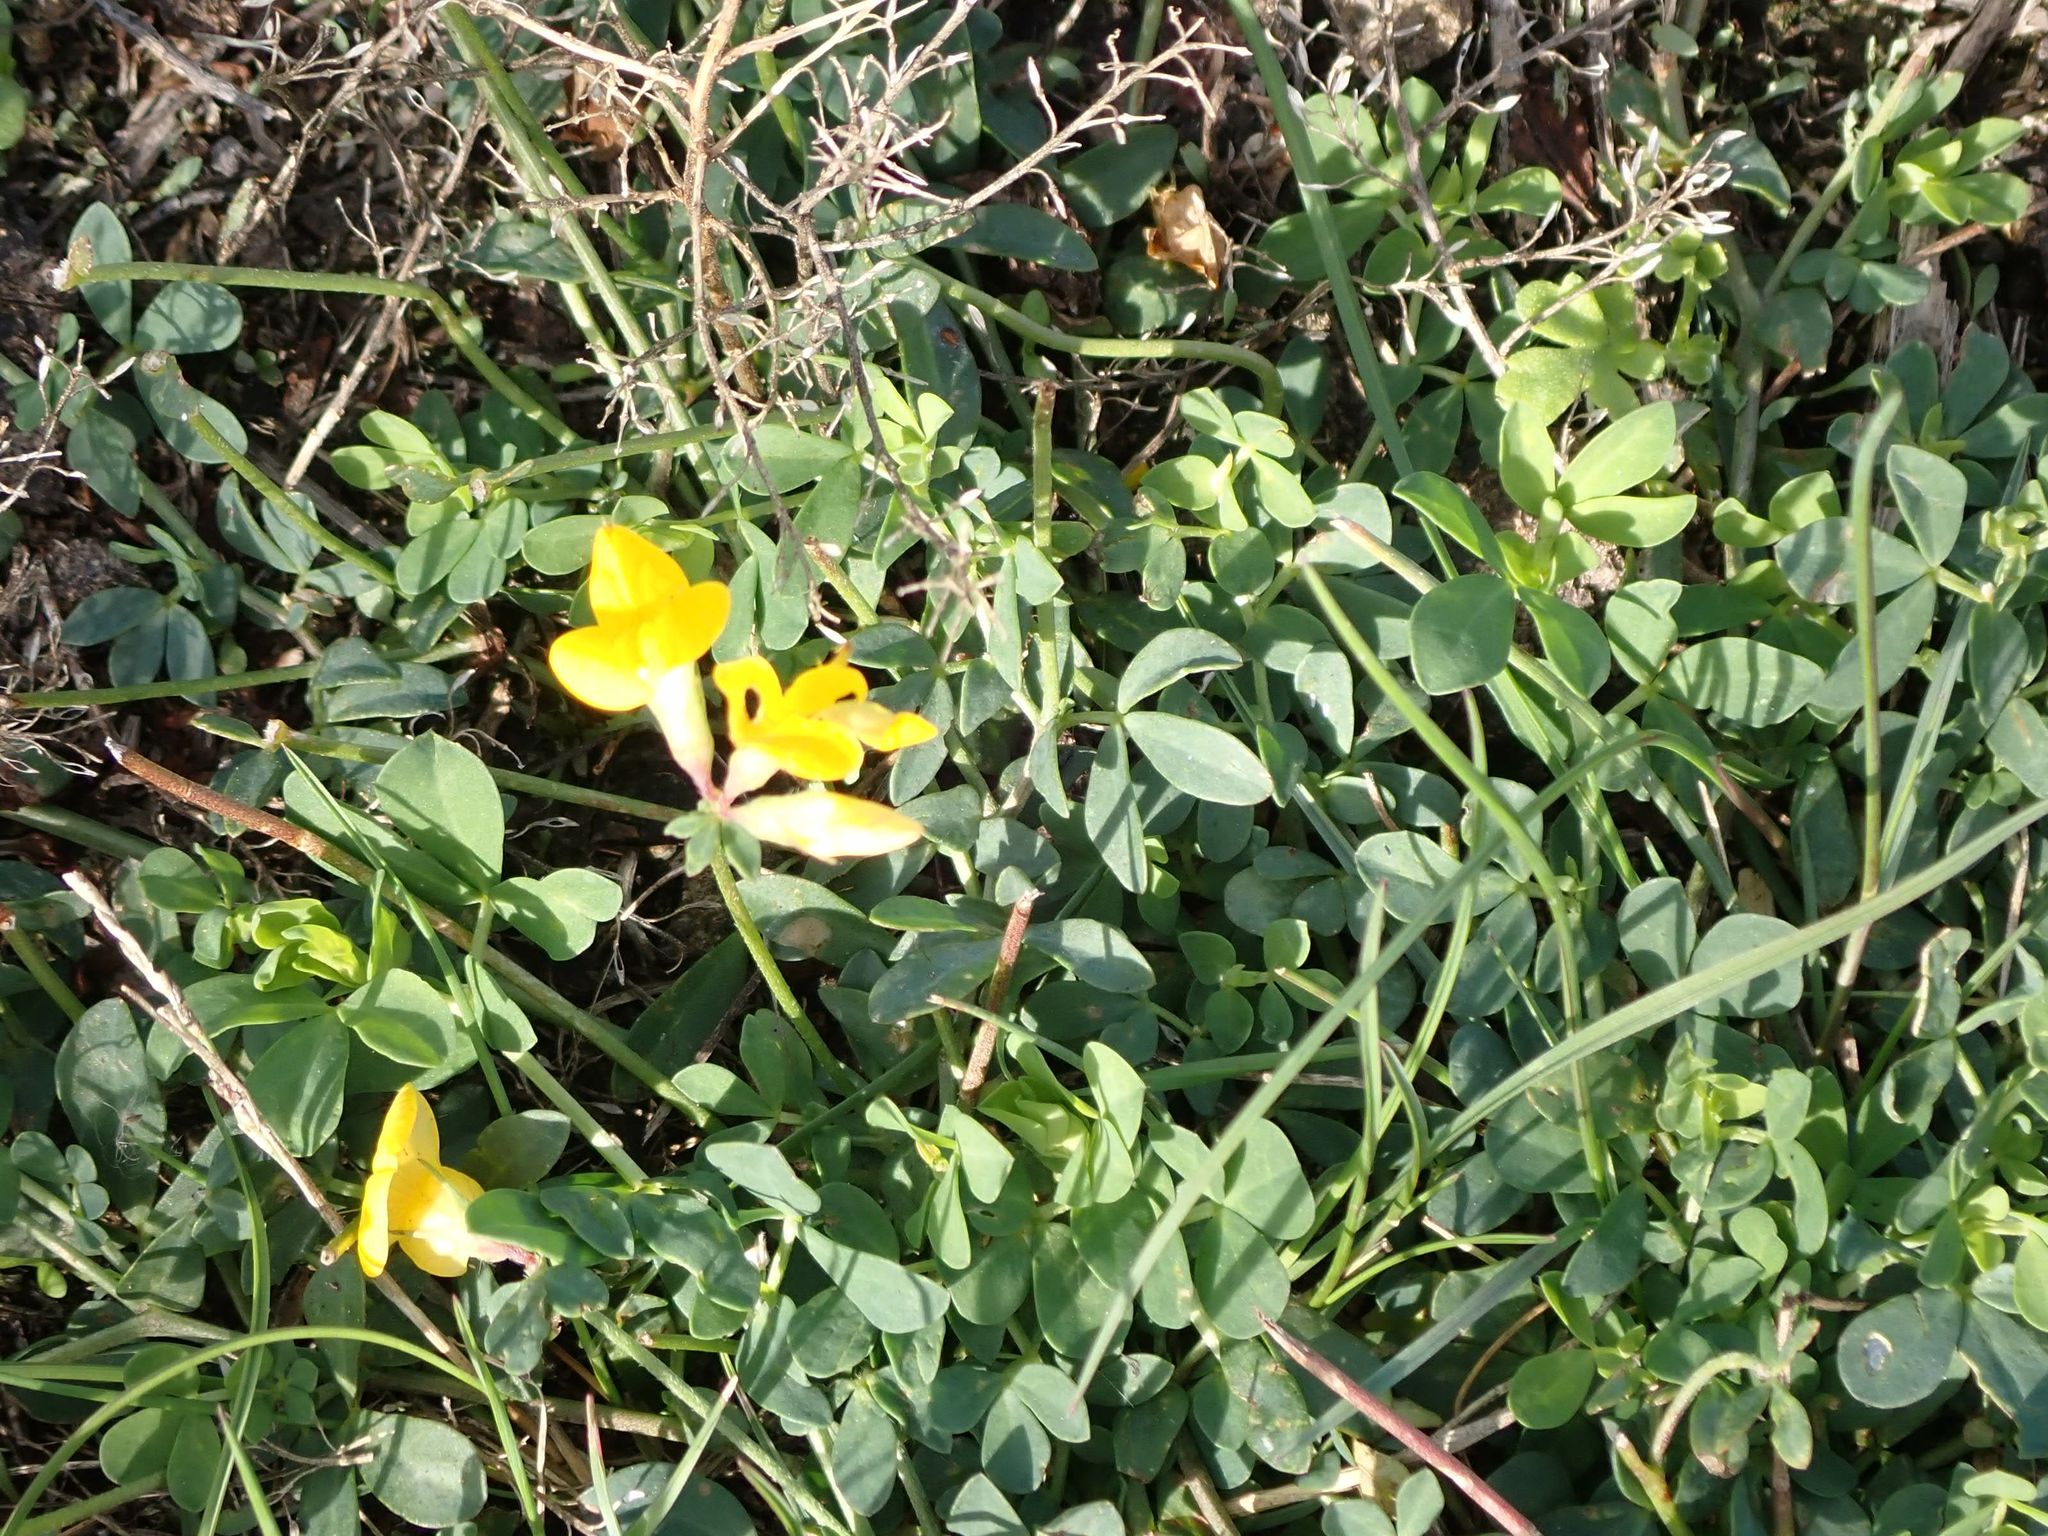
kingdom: Plantae
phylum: Tracheophyta
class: Magnoliopsida
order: Fabales
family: Fabaceae
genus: Lotus
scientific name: Lotus corniculatus
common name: Common bird's-foot-trefoil
